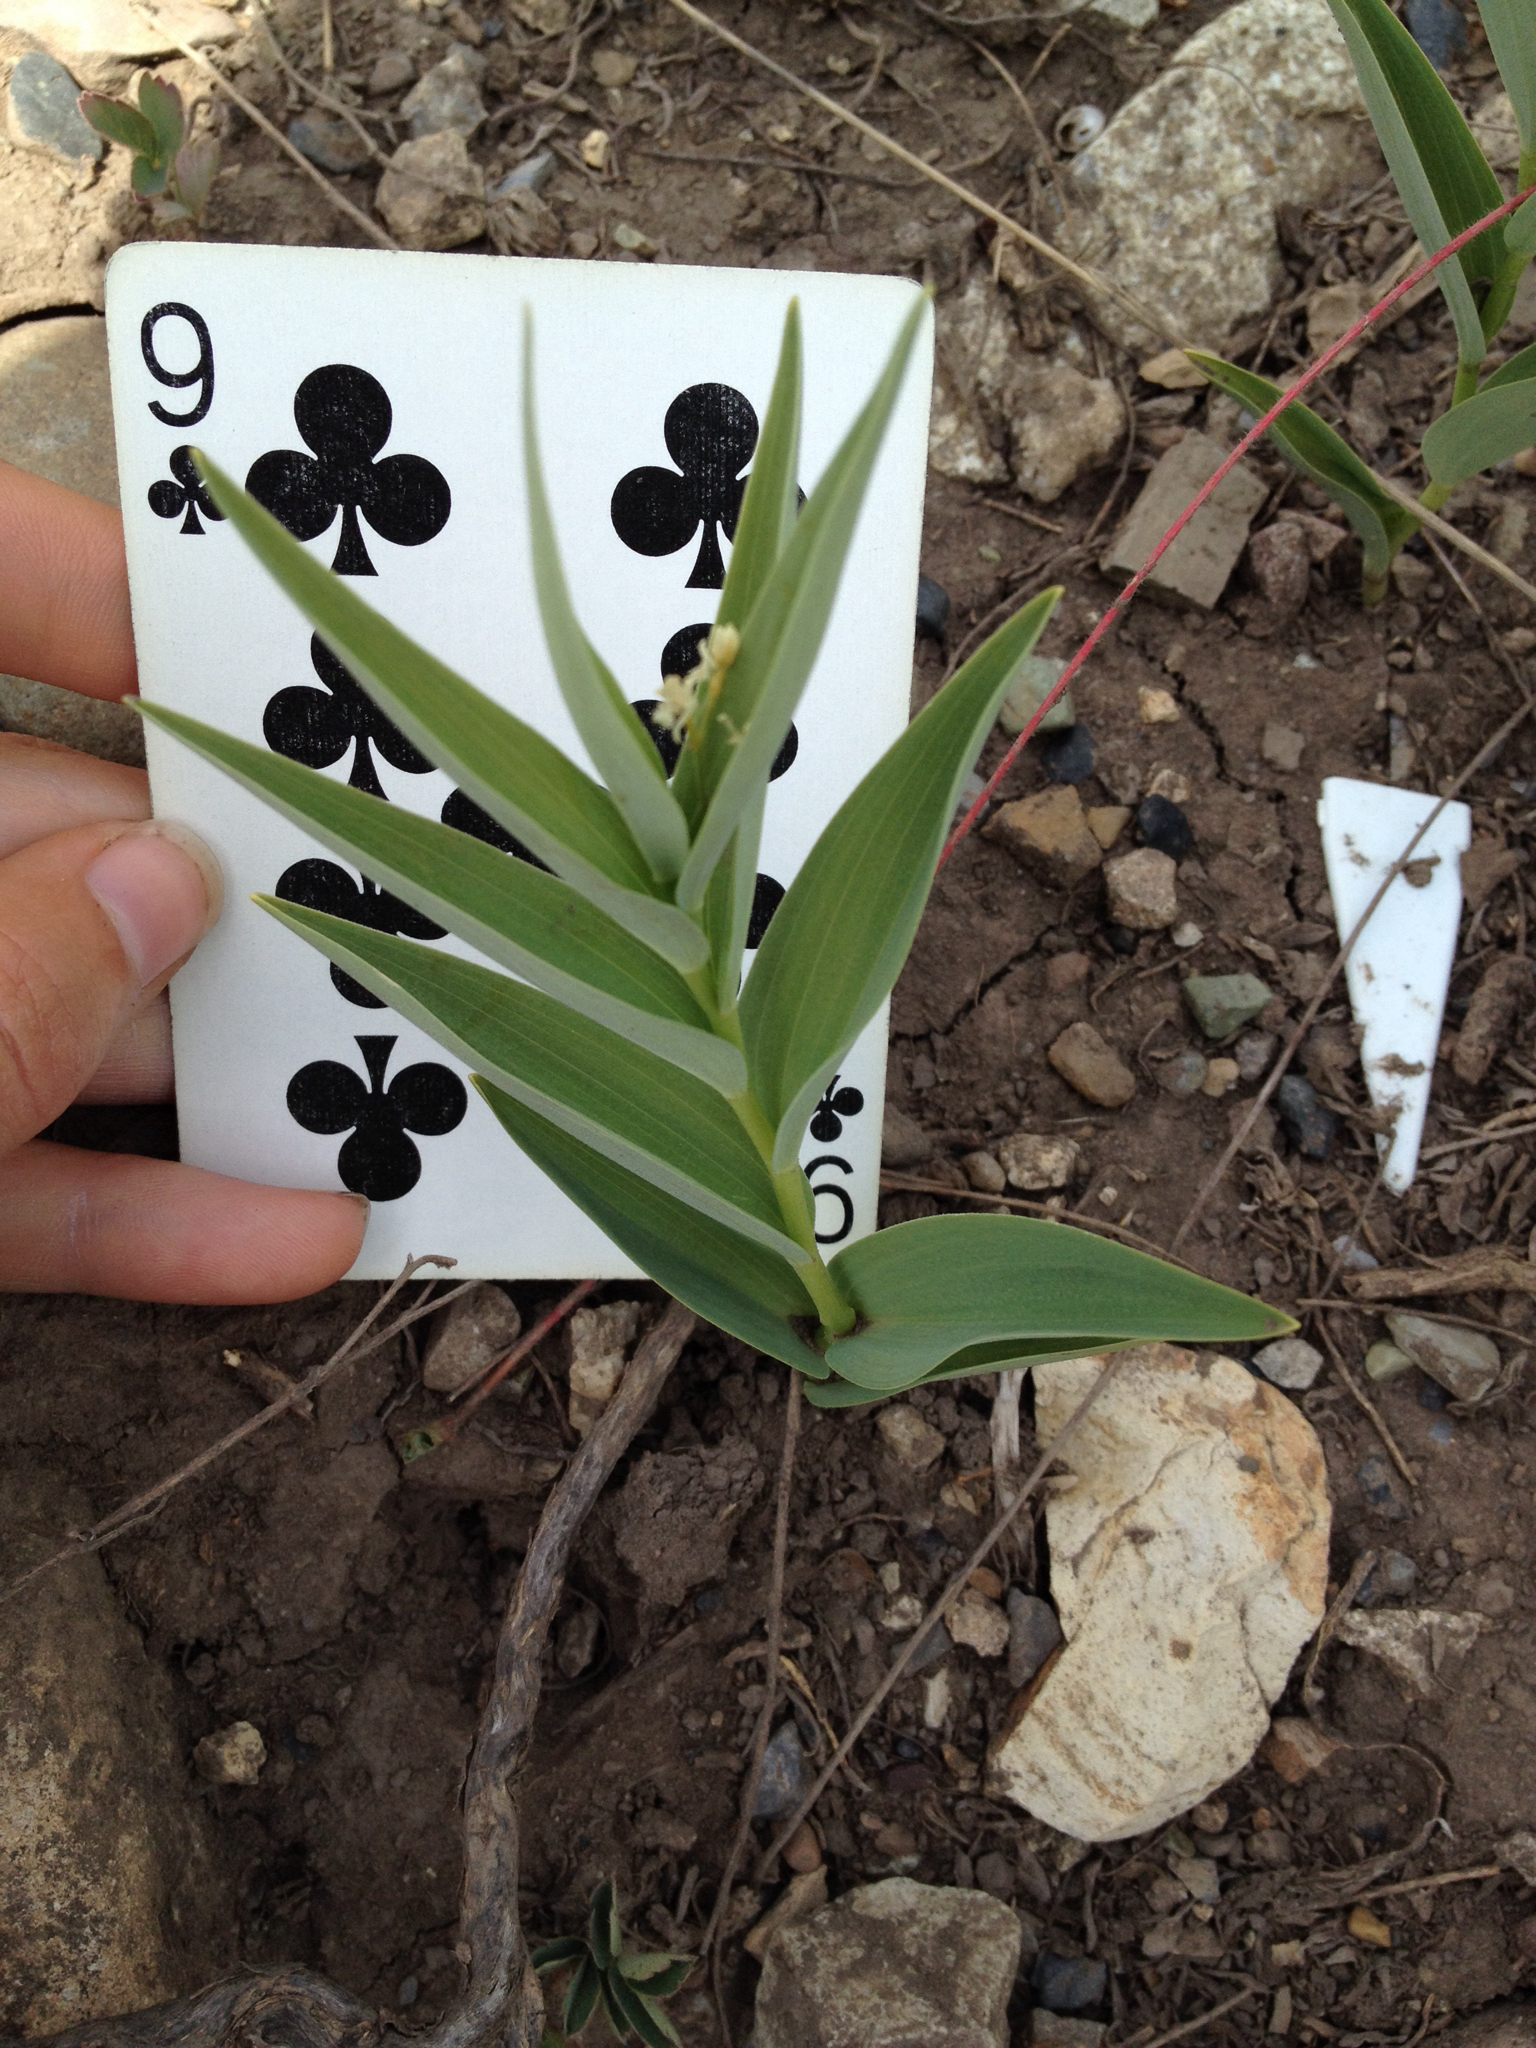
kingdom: Plantae
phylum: Tracheophyta
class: Liliopsida
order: Asparagales
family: Asparagaceae
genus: Maianthemum
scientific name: Maianthemum stellatum
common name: Little false solomon's seal
